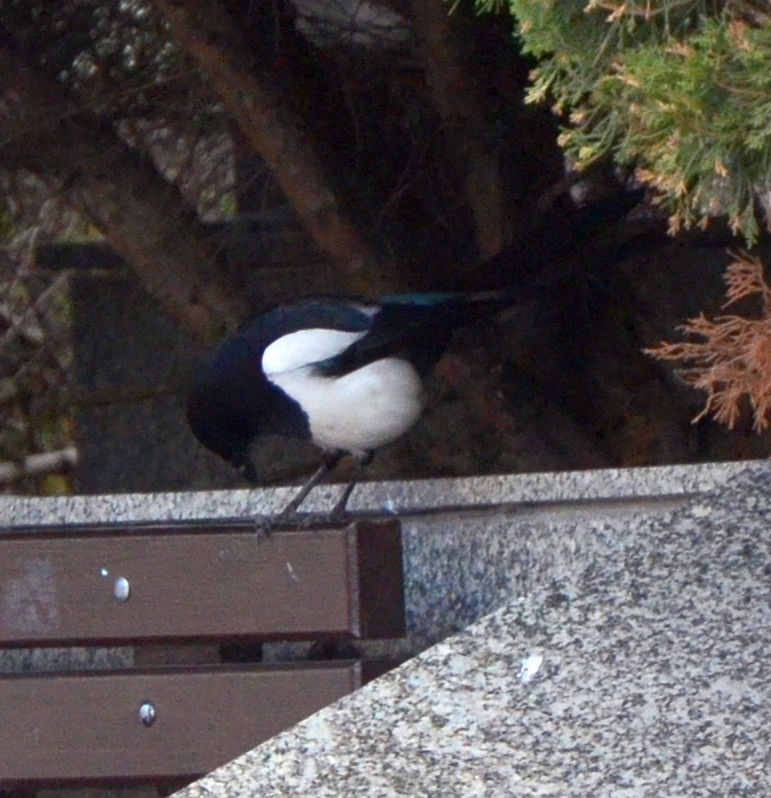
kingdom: Animalia
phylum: Chordata
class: Aves
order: Passeriformes
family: Corvidae
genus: Pica
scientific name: Pica pica
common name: Eurasian magpie
